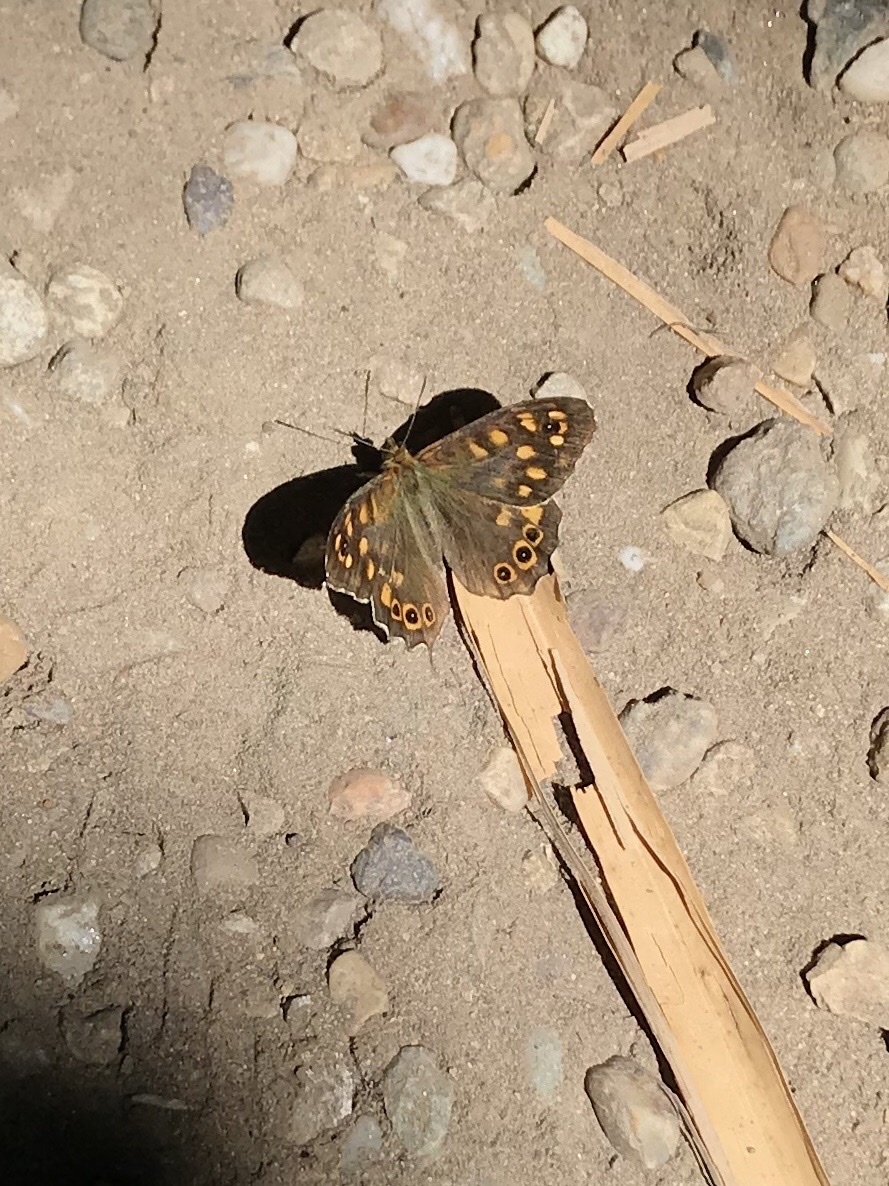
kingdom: Animalia
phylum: Arthropoda
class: Insecta
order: Lepidoptera
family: Nymphalidae
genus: Pararge
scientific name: Pararge aegeria
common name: Speckled wood
